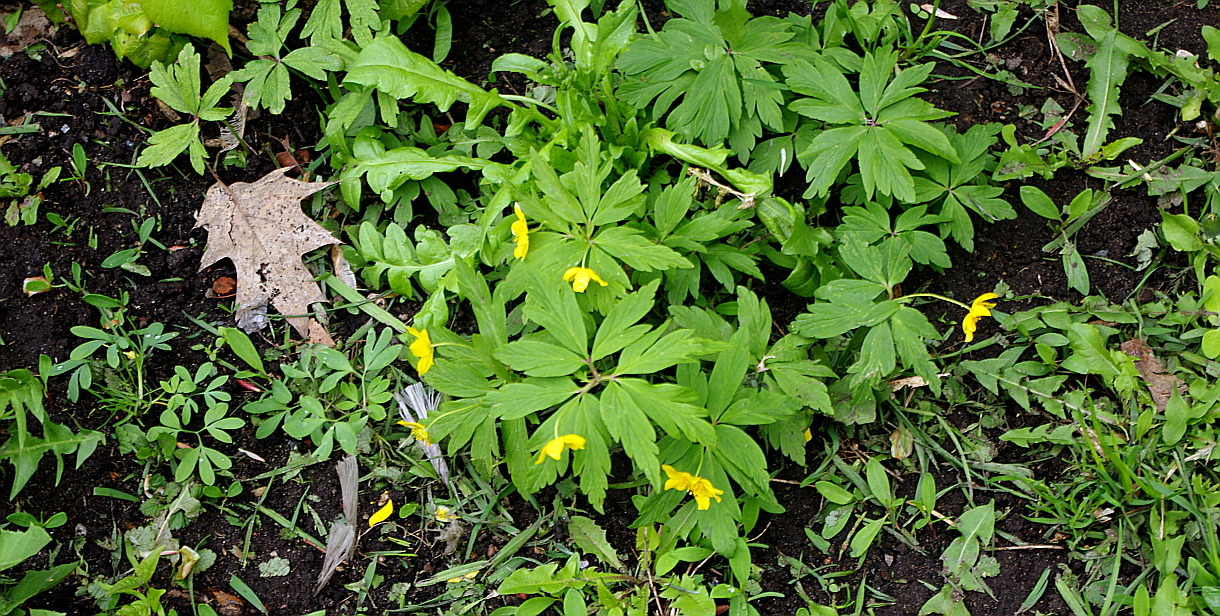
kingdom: Plantae
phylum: Tracheophyta
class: Magnoliopsida
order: Ranunculales
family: Ranunculaceae
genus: Anemone
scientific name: Anemone ranunculoides
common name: Yellow anemone
